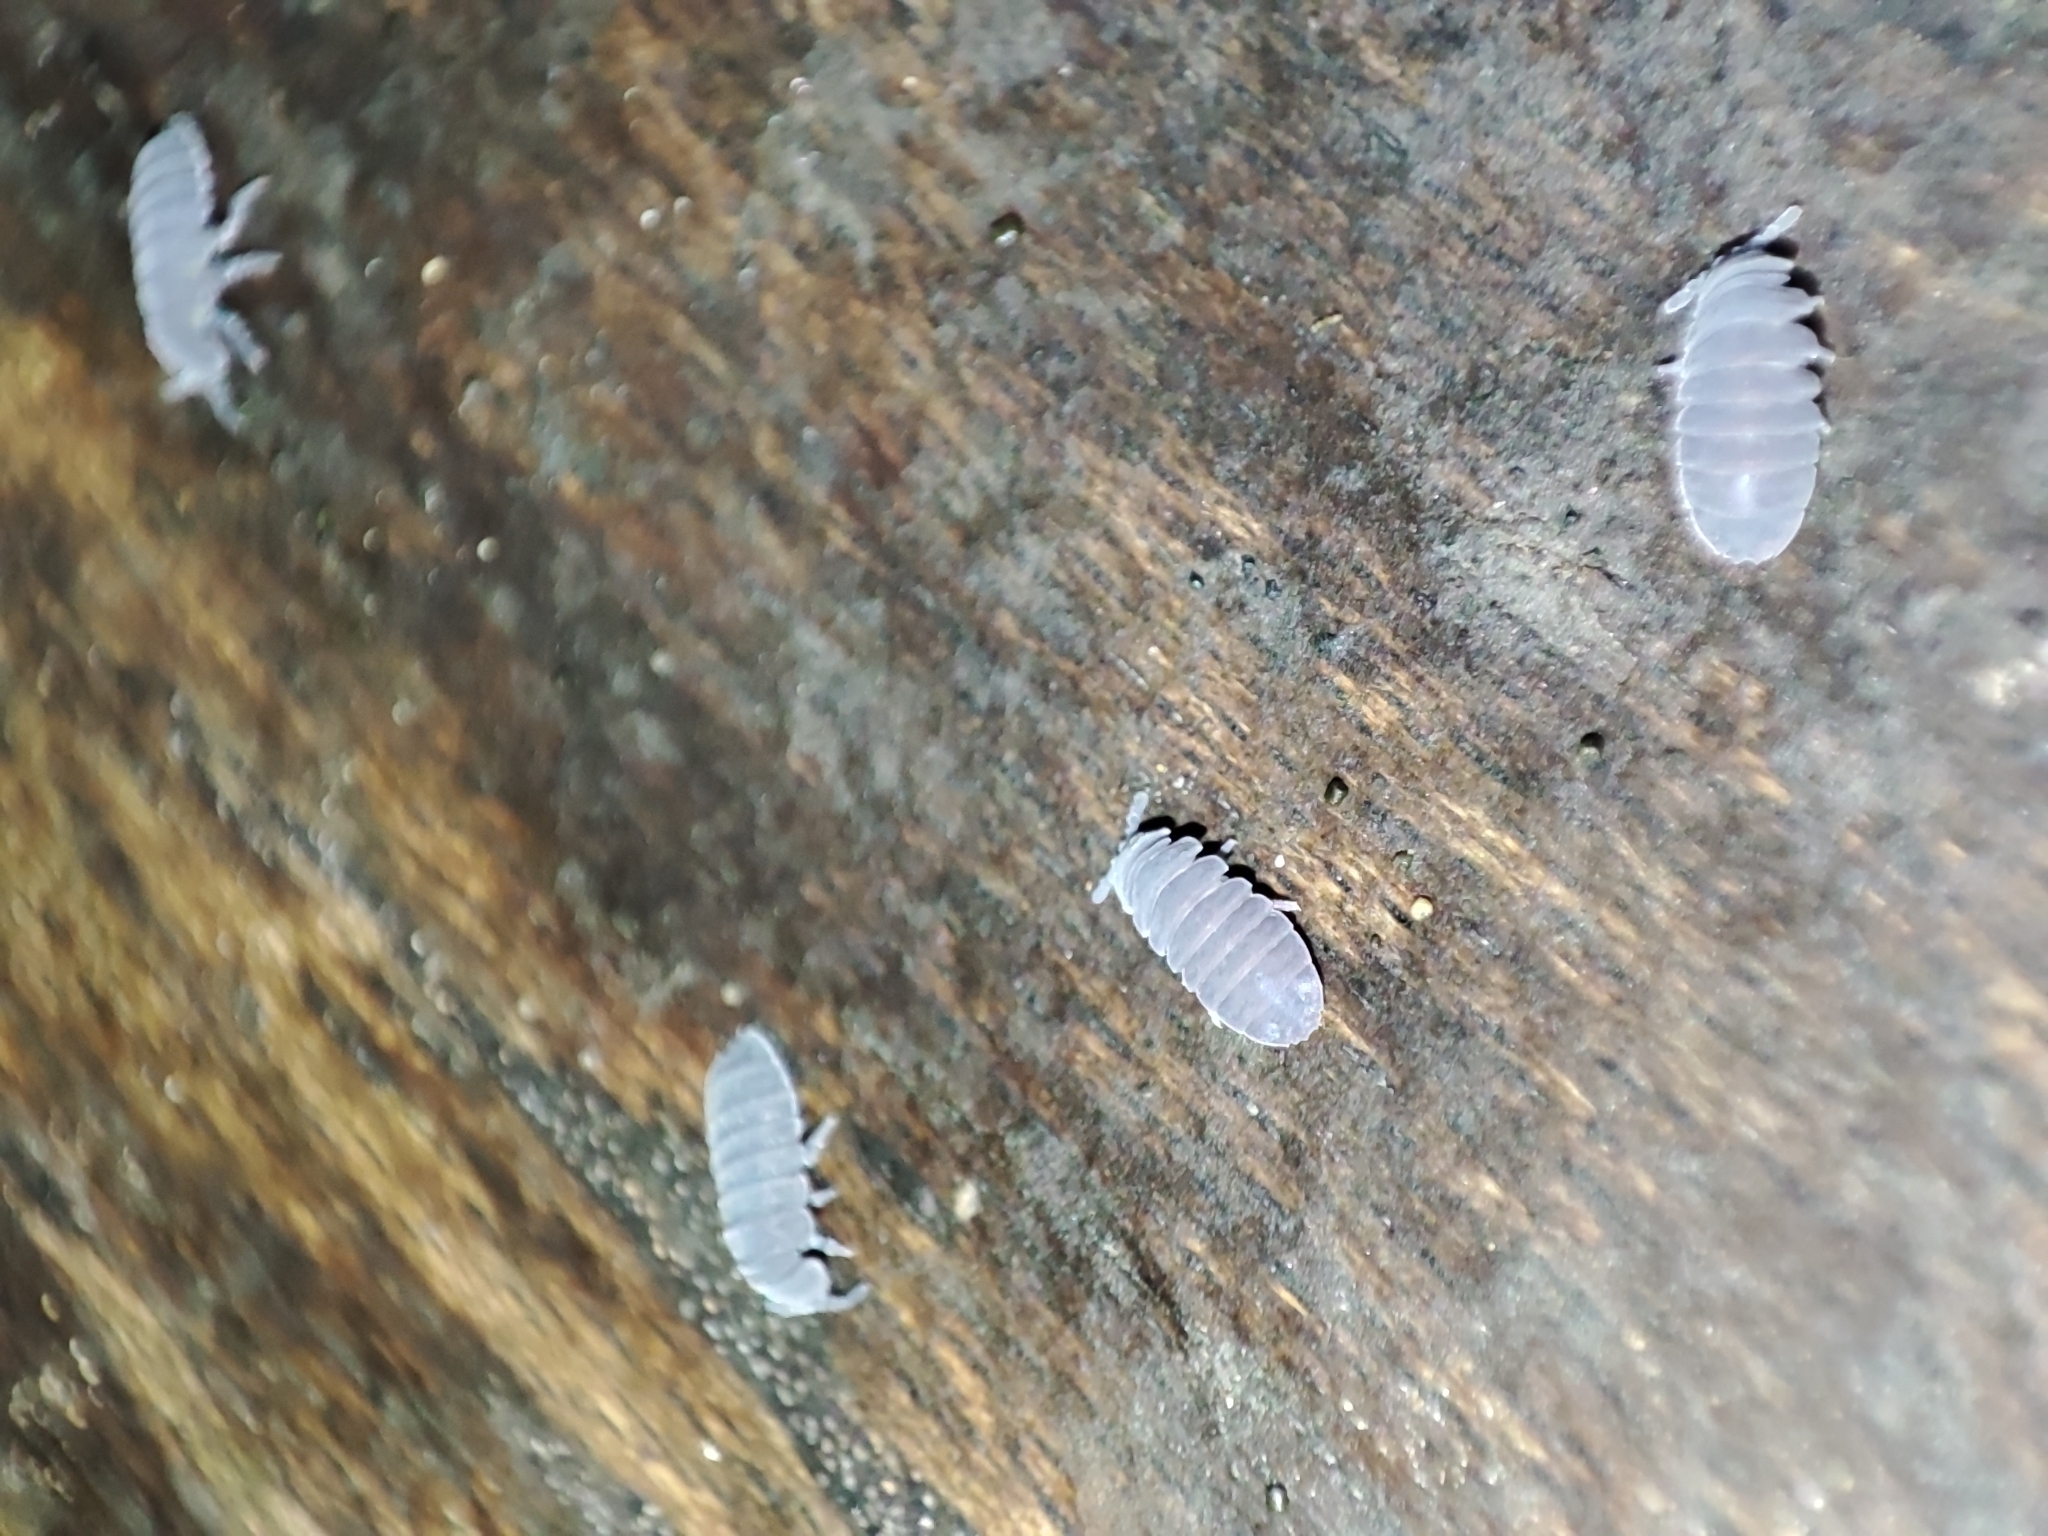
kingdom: Animalia
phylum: Arthropoda
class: Collembola
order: Poduromorpha
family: Onychiuridae
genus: Tetrodontophora
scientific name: Tetrodontophora bielanensis
